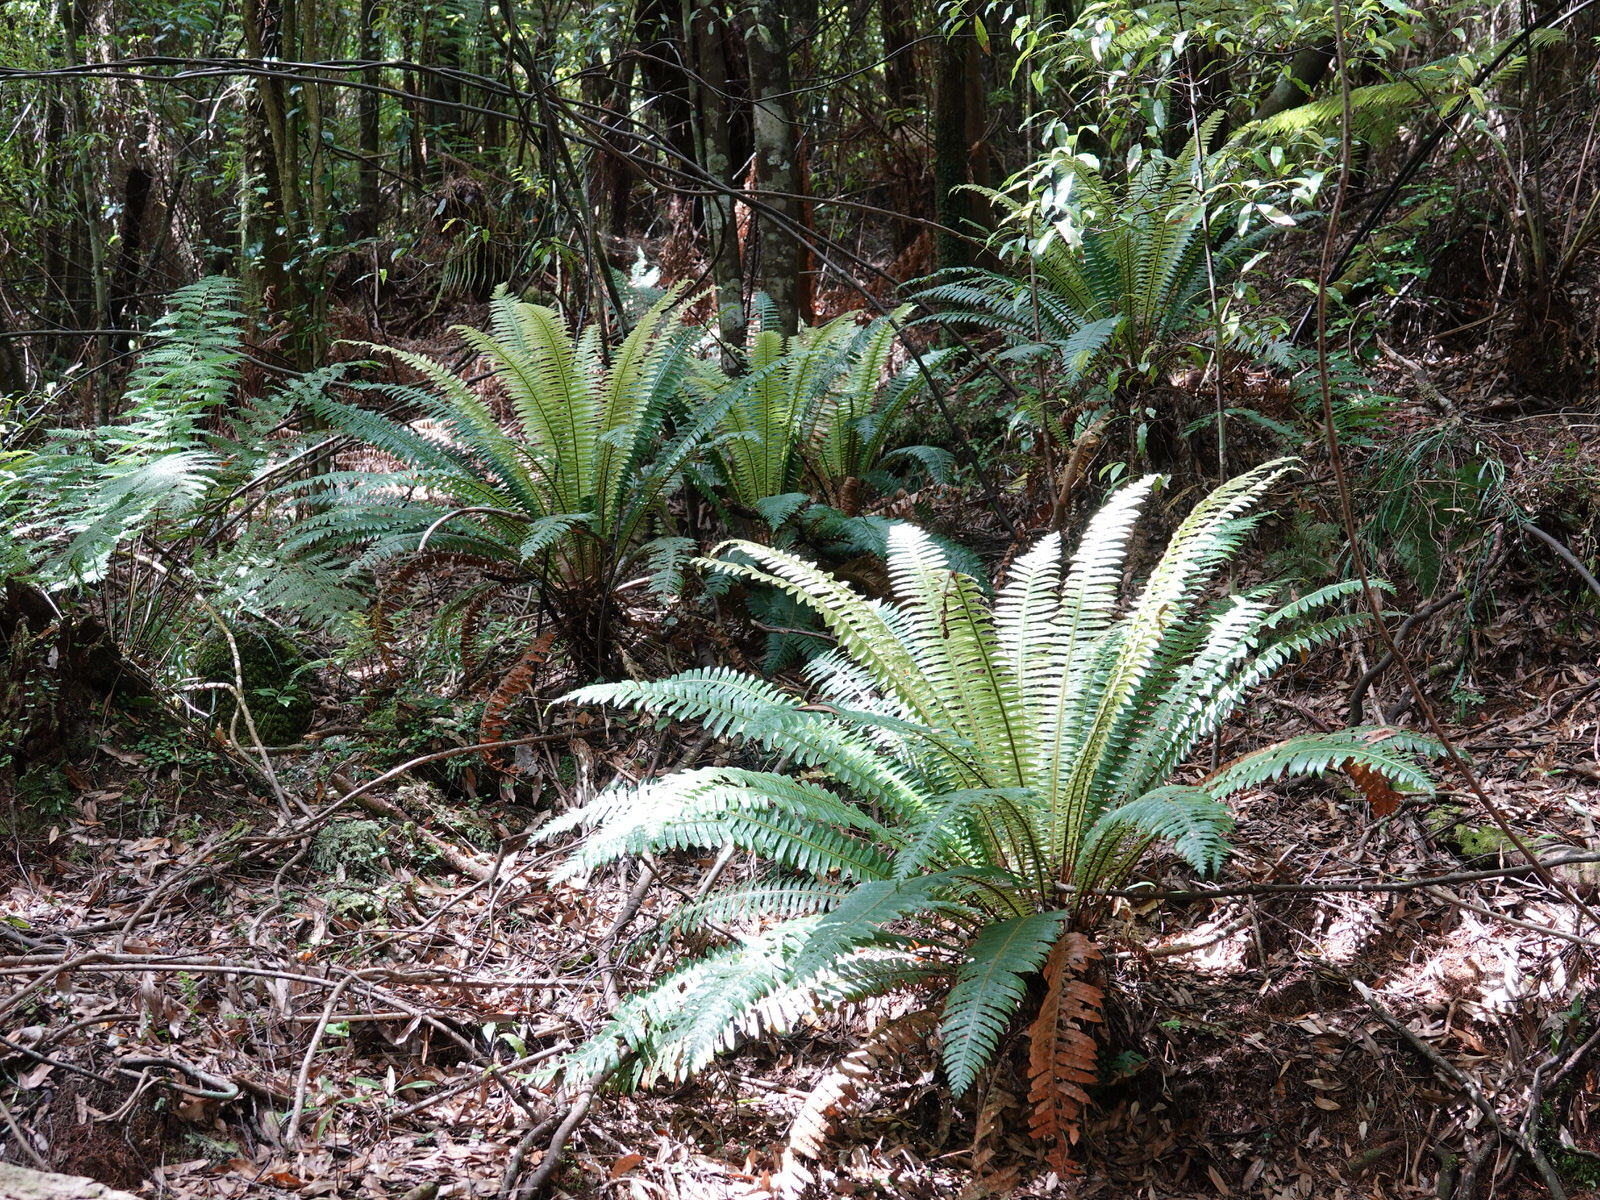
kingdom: Plantae
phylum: Tracheophyta
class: Polypodiopsida
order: Polypodiales
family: Blechnaceae
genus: Lomaria
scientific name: Lomaria discolor
